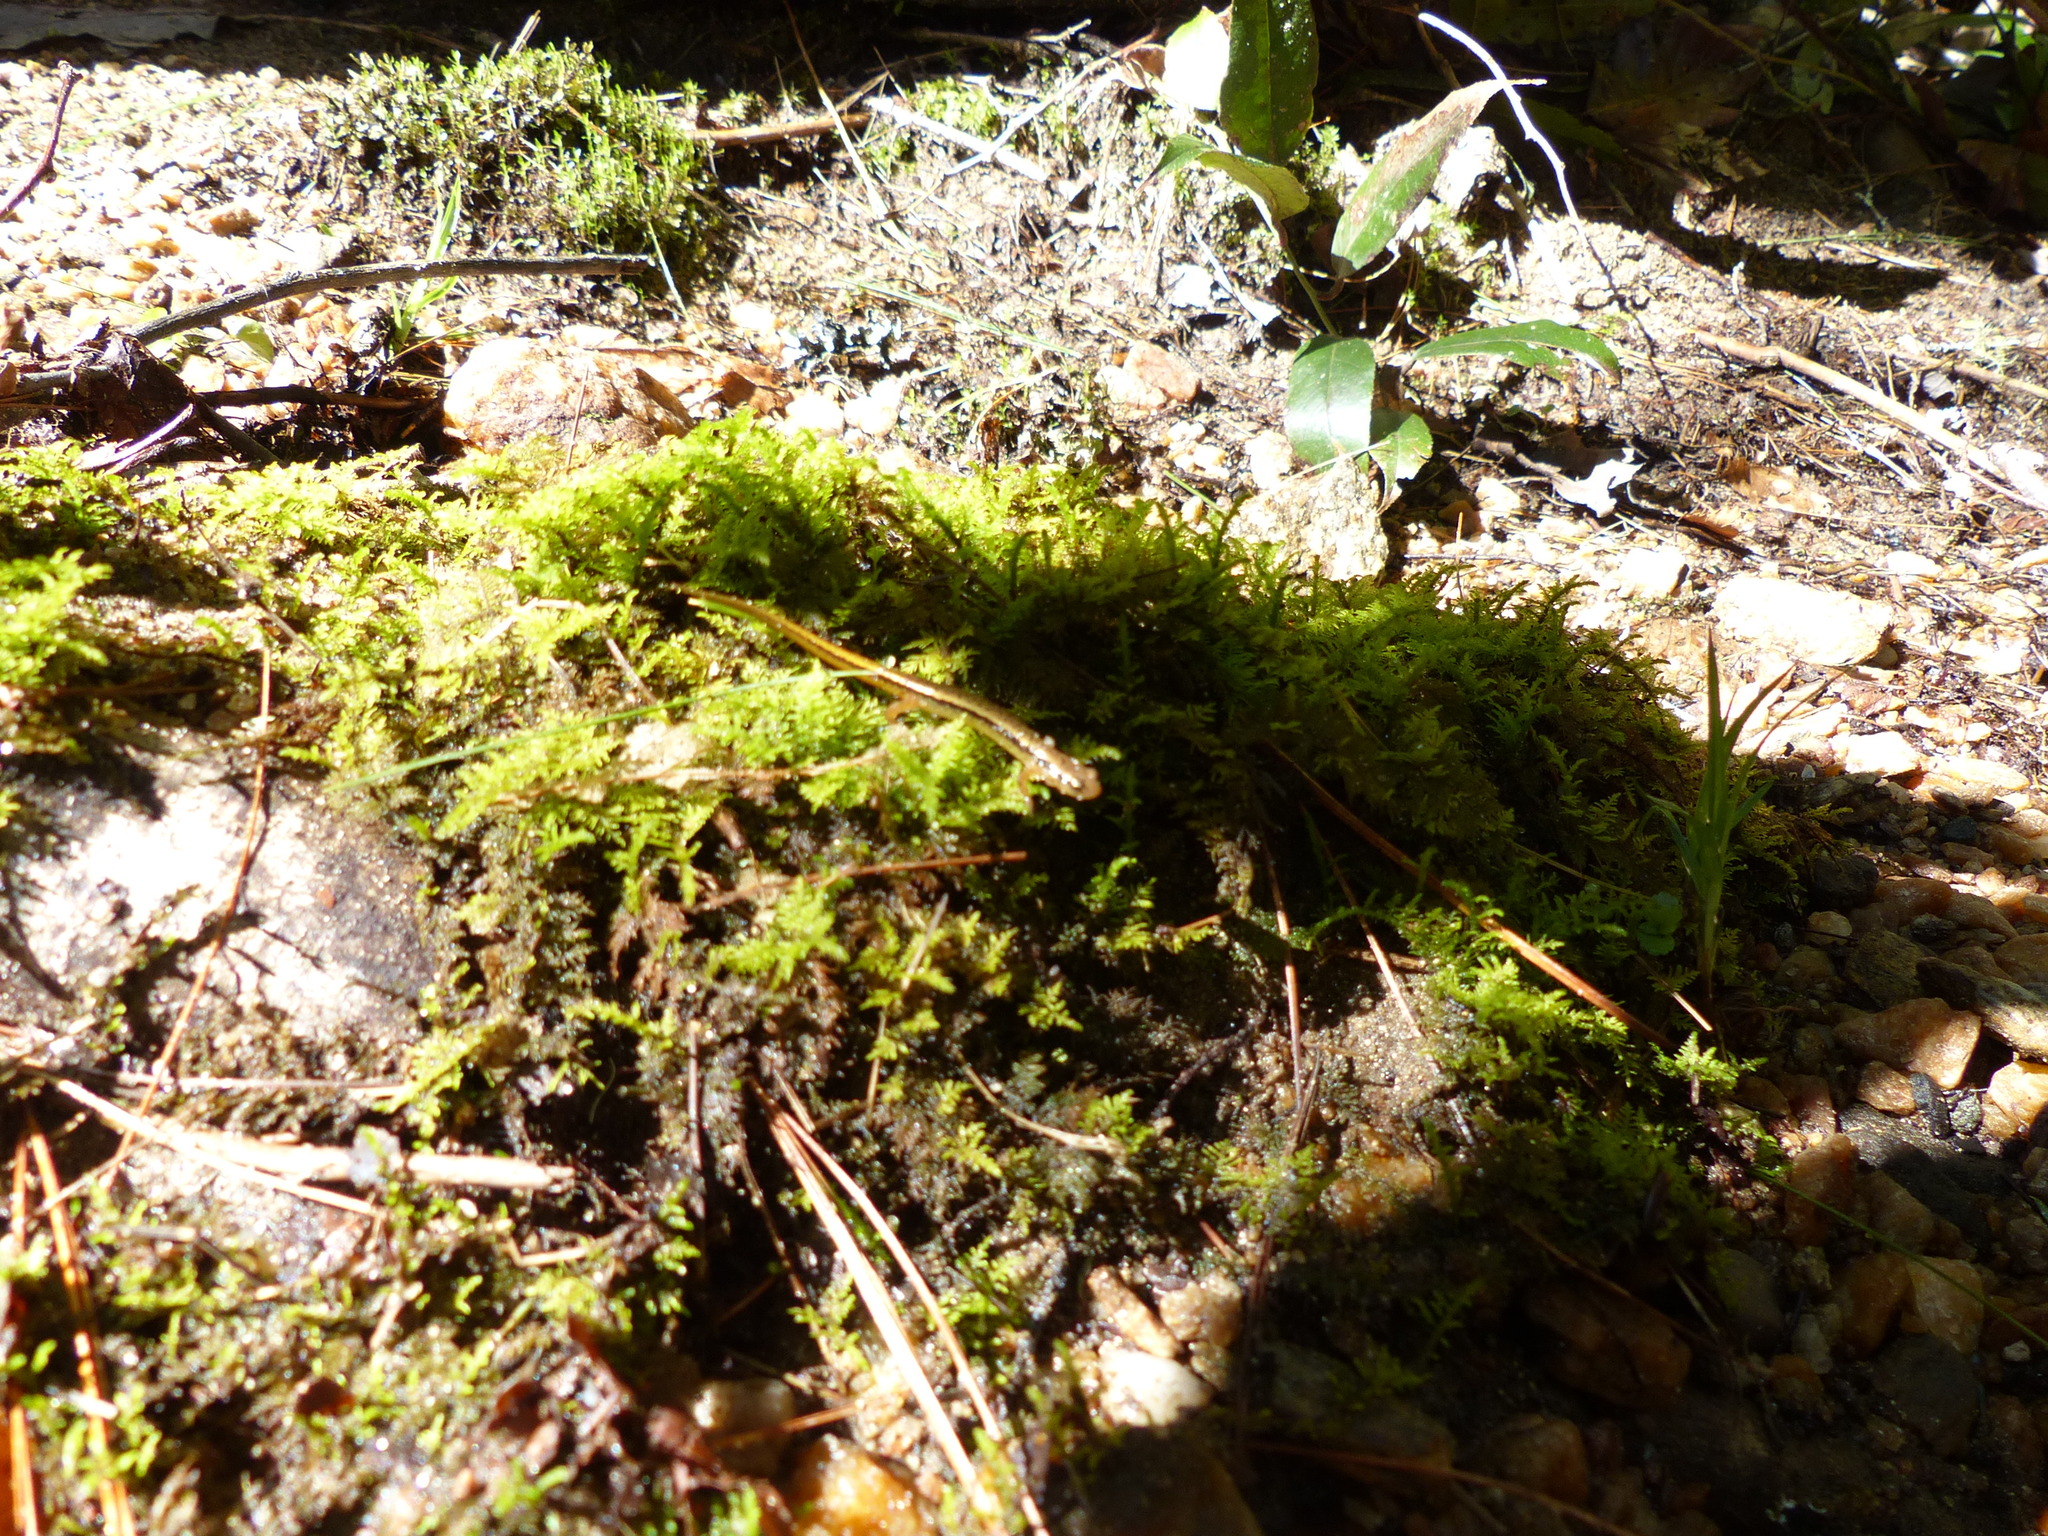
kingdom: Animalia
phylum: Chordata
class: Amphibia
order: Caudata
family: Plethodontidae
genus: Eurycea
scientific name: Eurycea wilderae
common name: Blue ridge two-lined salamander
